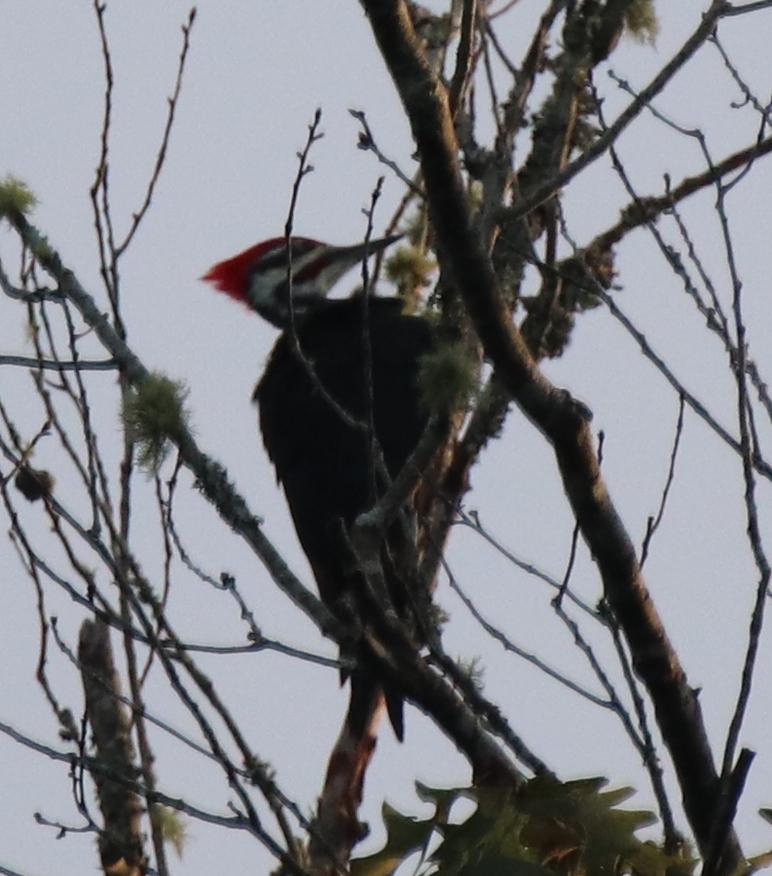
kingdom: Animalia
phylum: Chordata
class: Aves
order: Piciformes
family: Picidae
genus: Dryocopus
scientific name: Dryocopus pileatus
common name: Pileated woodpecker
